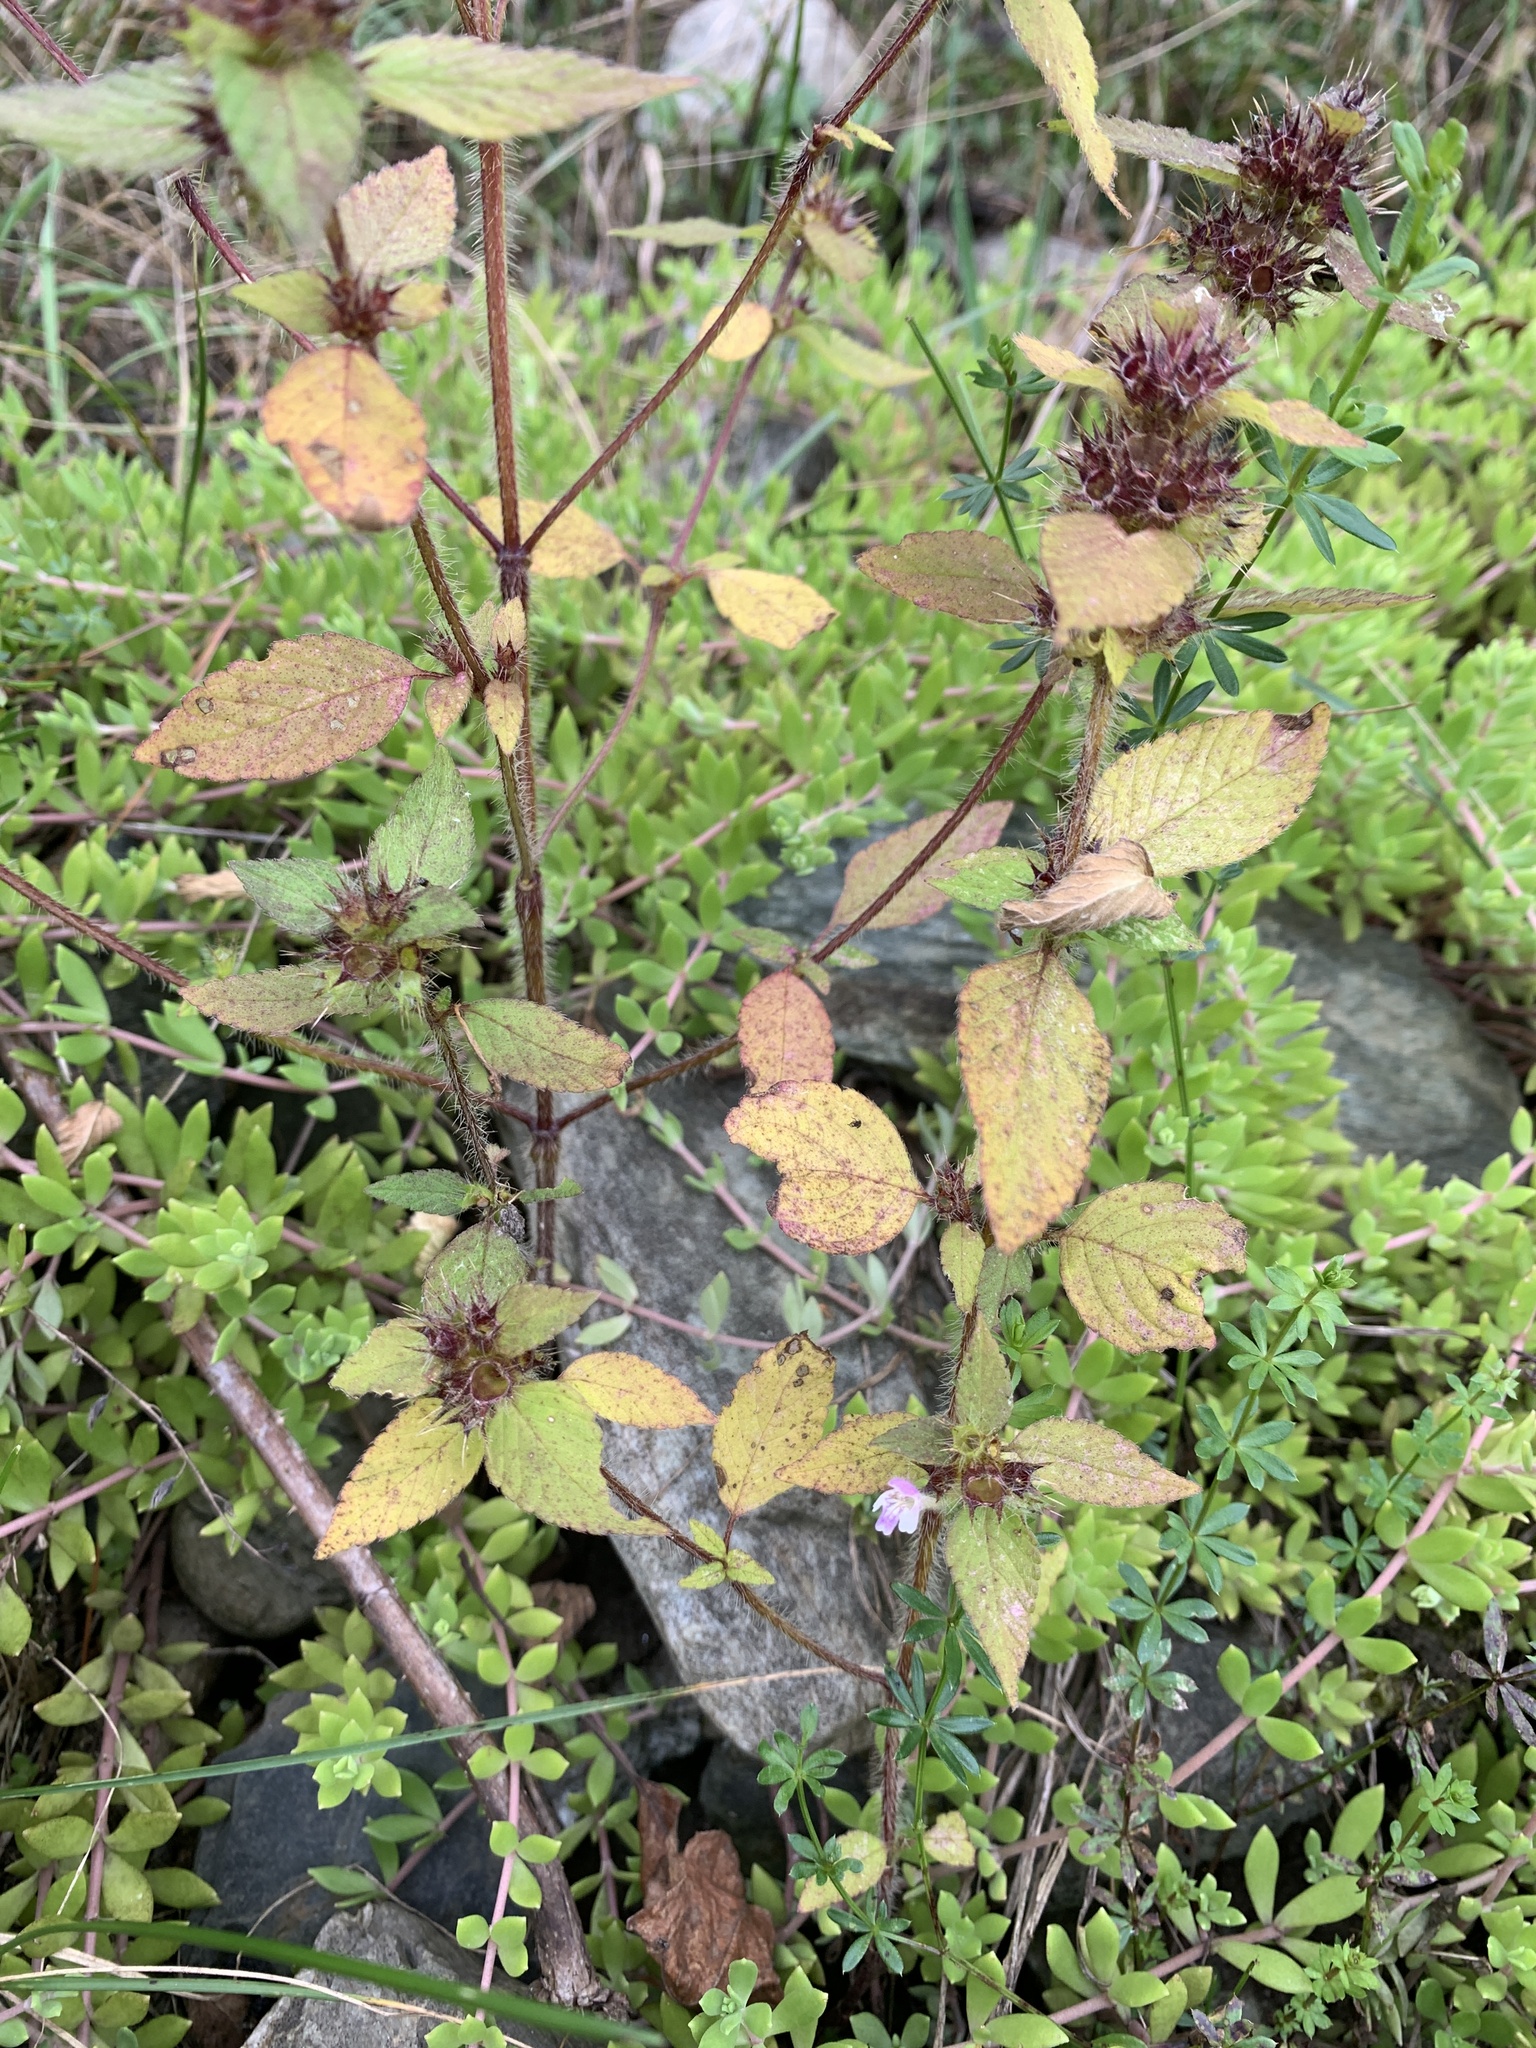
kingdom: Plantae
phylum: Tracheophyta
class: Magnoliopsida
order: Lamiales
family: Lamiaceae
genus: Galeopsis
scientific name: Galeopsis bifida
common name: Bifid hemp-nettle
